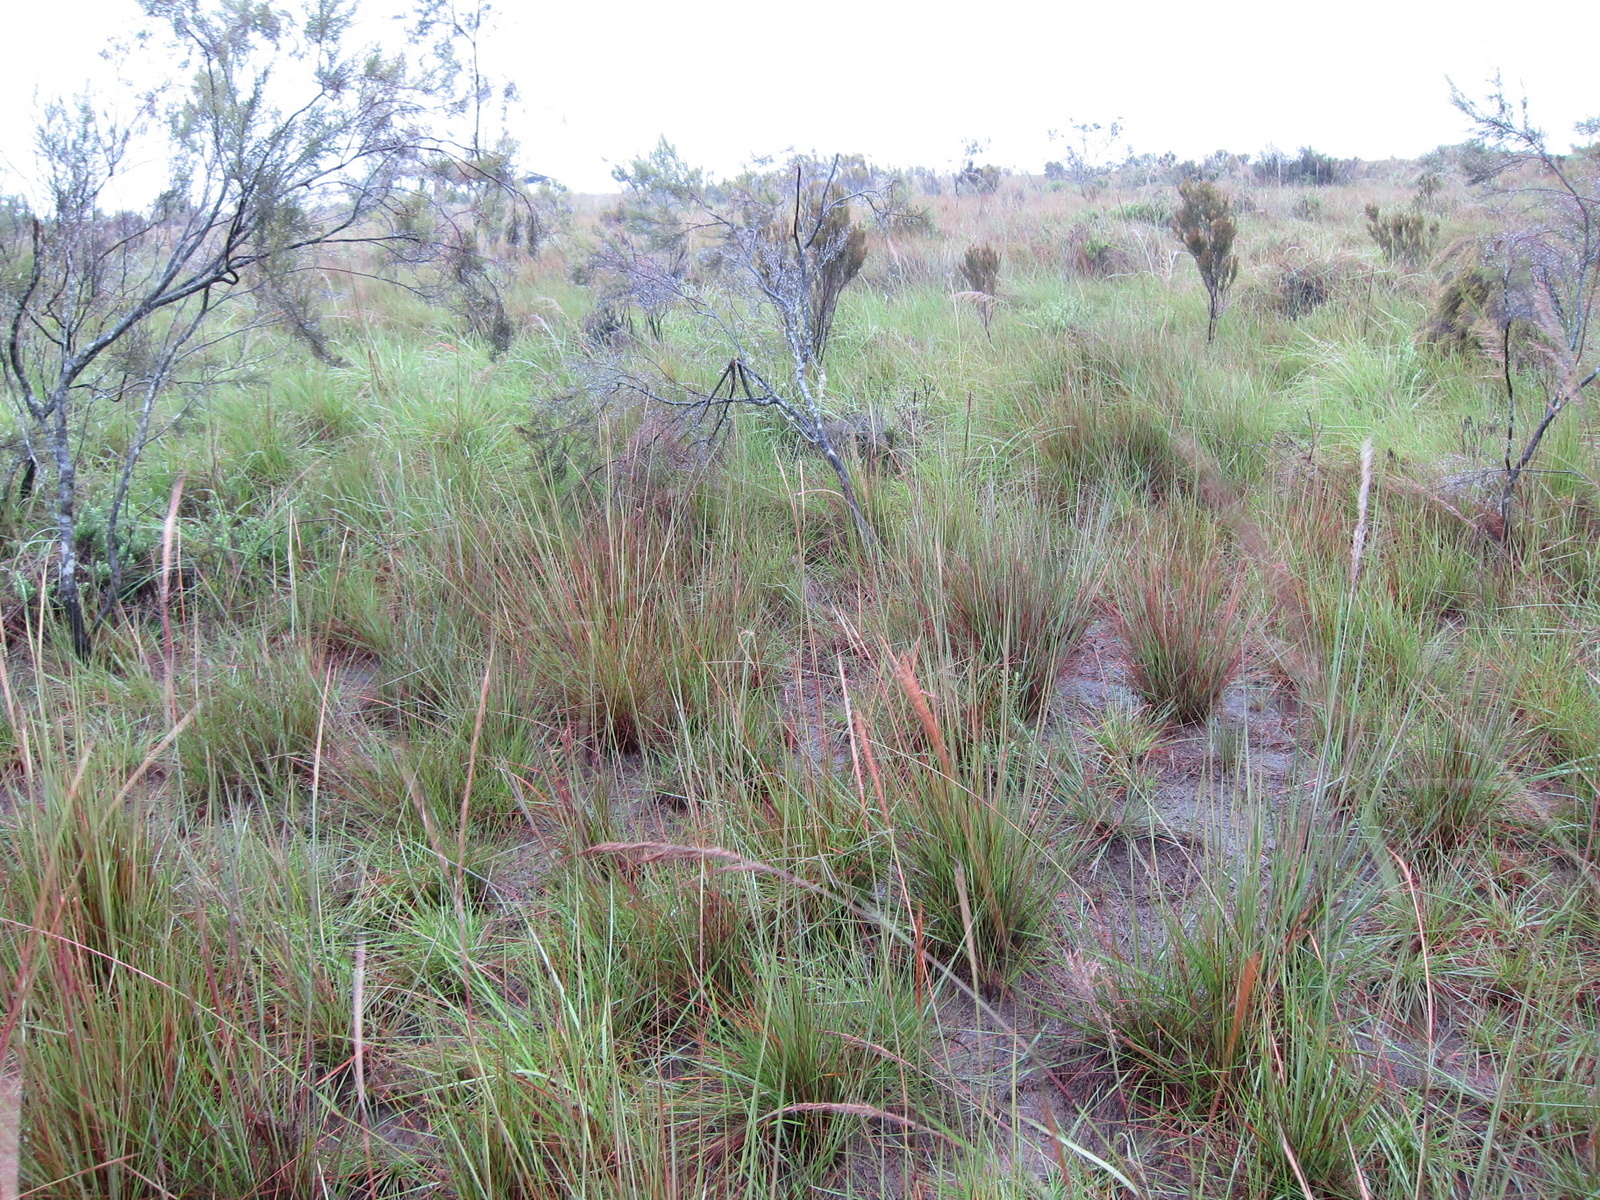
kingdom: Plantae
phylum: Tracheophyta
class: Liliopsida
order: Poales
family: Poaceae
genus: Trachypogon
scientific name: Trachypogon spicatus
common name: Crinkle-awn
